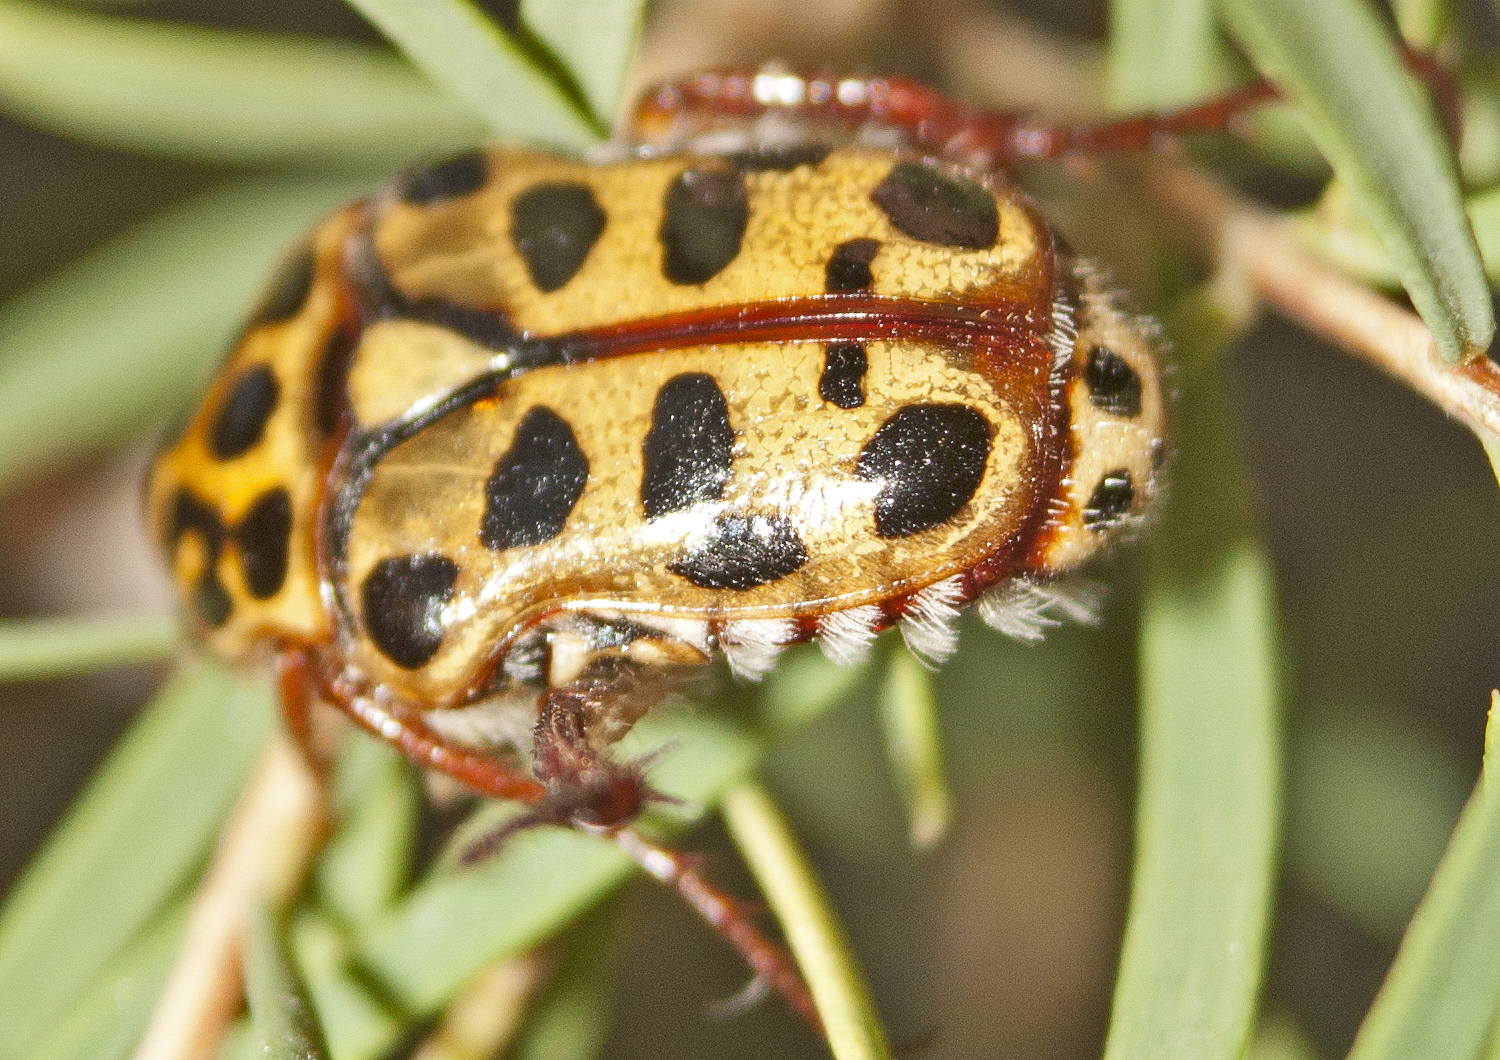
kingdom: Animalia
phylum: Arthropoda
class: Insecta
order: Coleoptera
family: Scarabaeidae
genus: Neorrhina
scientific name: Neorrhina punctatum
